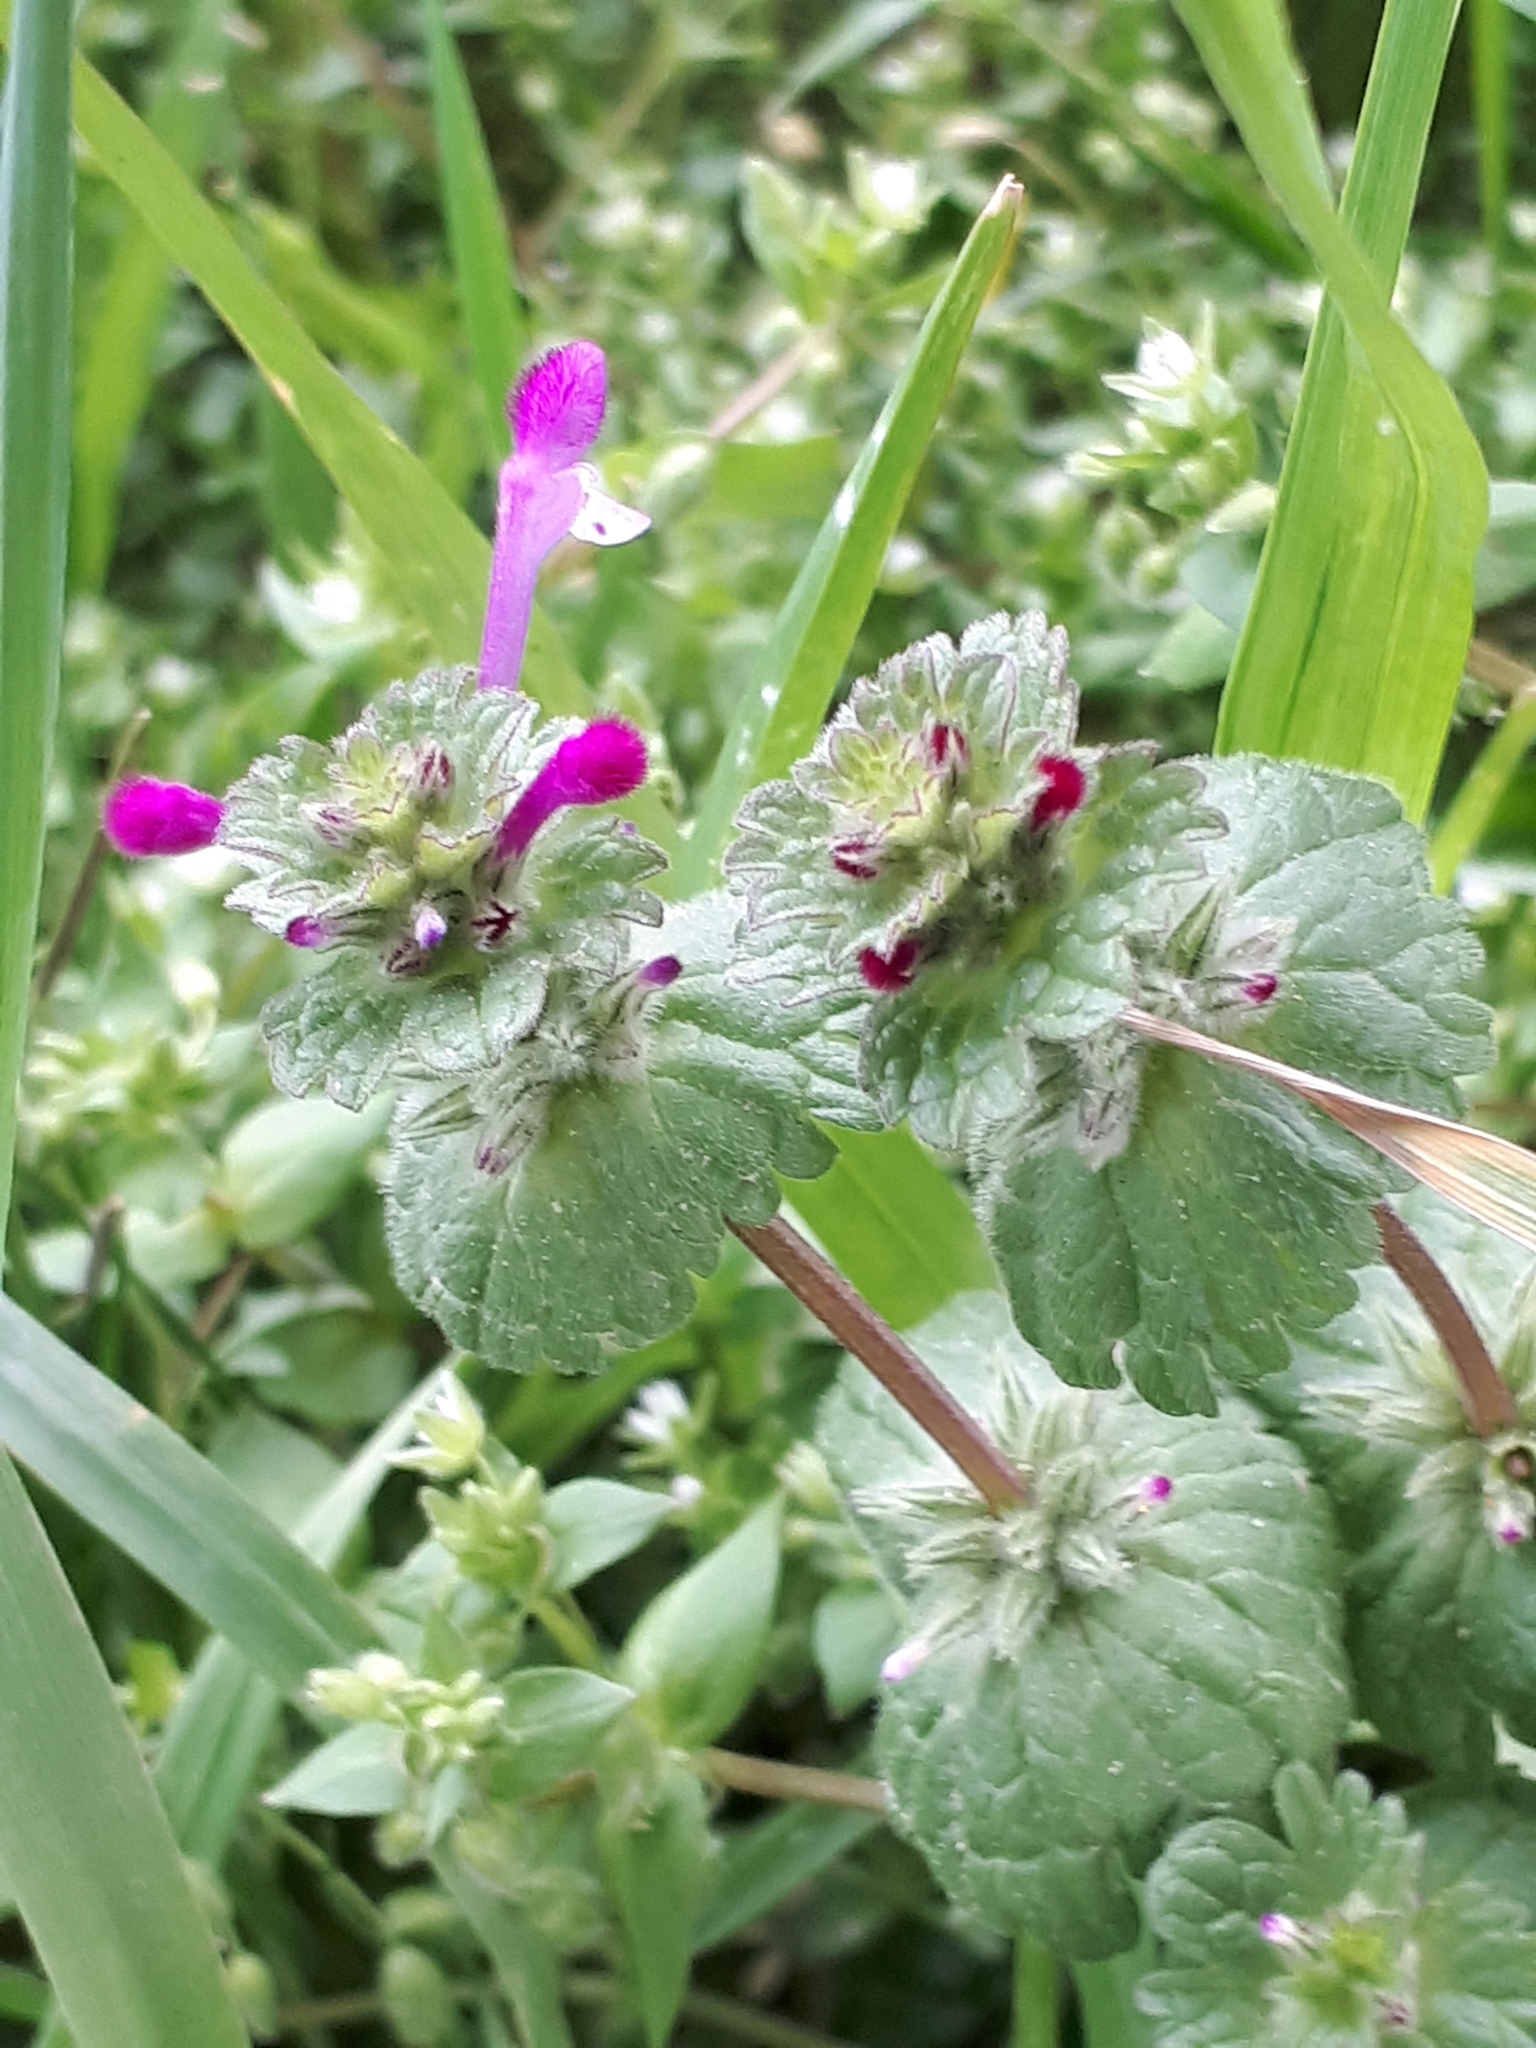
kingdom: Plantae
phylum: Tracheophyta
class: Magnoliopsida
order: Lamiales
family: Lamiaceae
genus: Lamium
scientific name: Lamium amplexicaule
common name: Henbit dead-nettle
